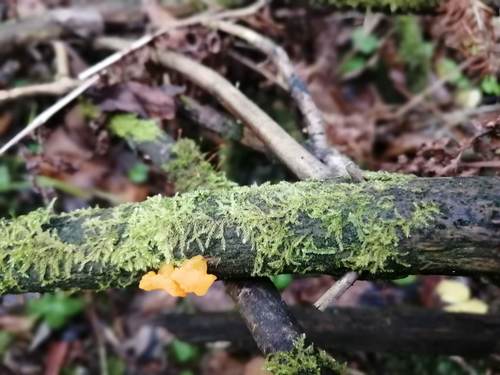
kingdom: Fungi
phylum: Basidiomycota
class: Dacrymycetes
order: Dacrymycetales
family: Dacrymycetaceae
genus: Dacrymyces
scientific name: Dacrymyces chrysospermus
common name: Orange jelly spot
